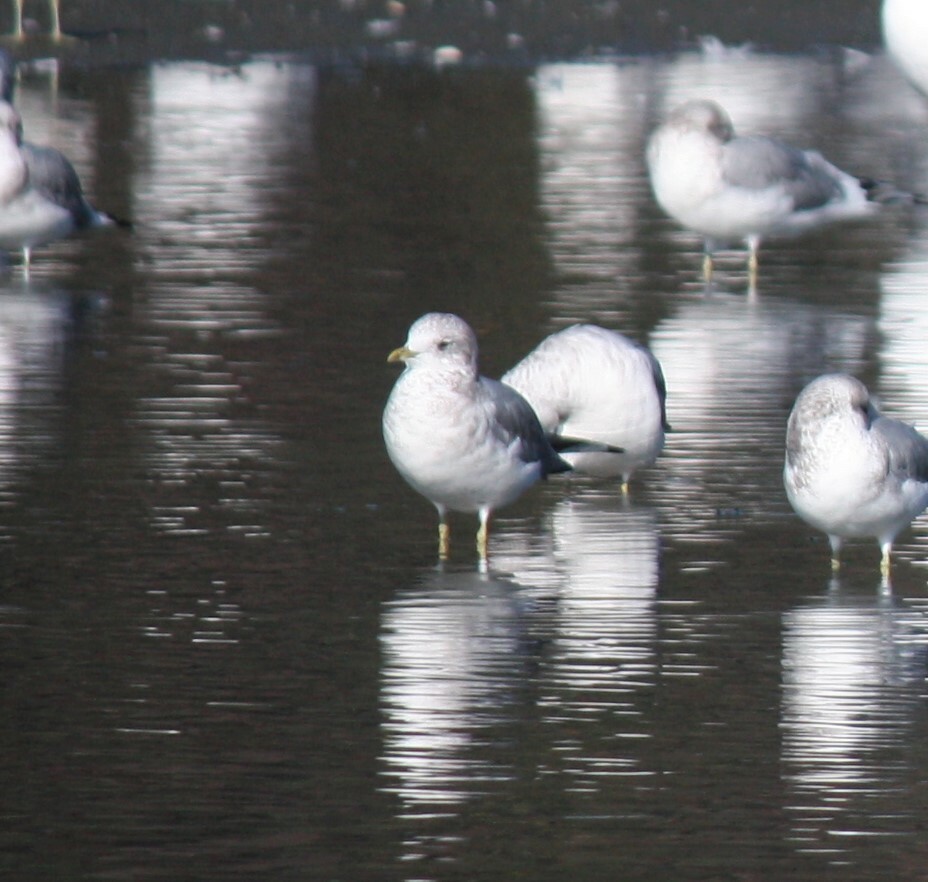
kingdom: Animalia
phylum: Chordata
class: Aves
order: Charadriiformes
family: Laridae
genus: Larus
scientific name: Larus brachyrhynchus
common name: Short-billed gull
